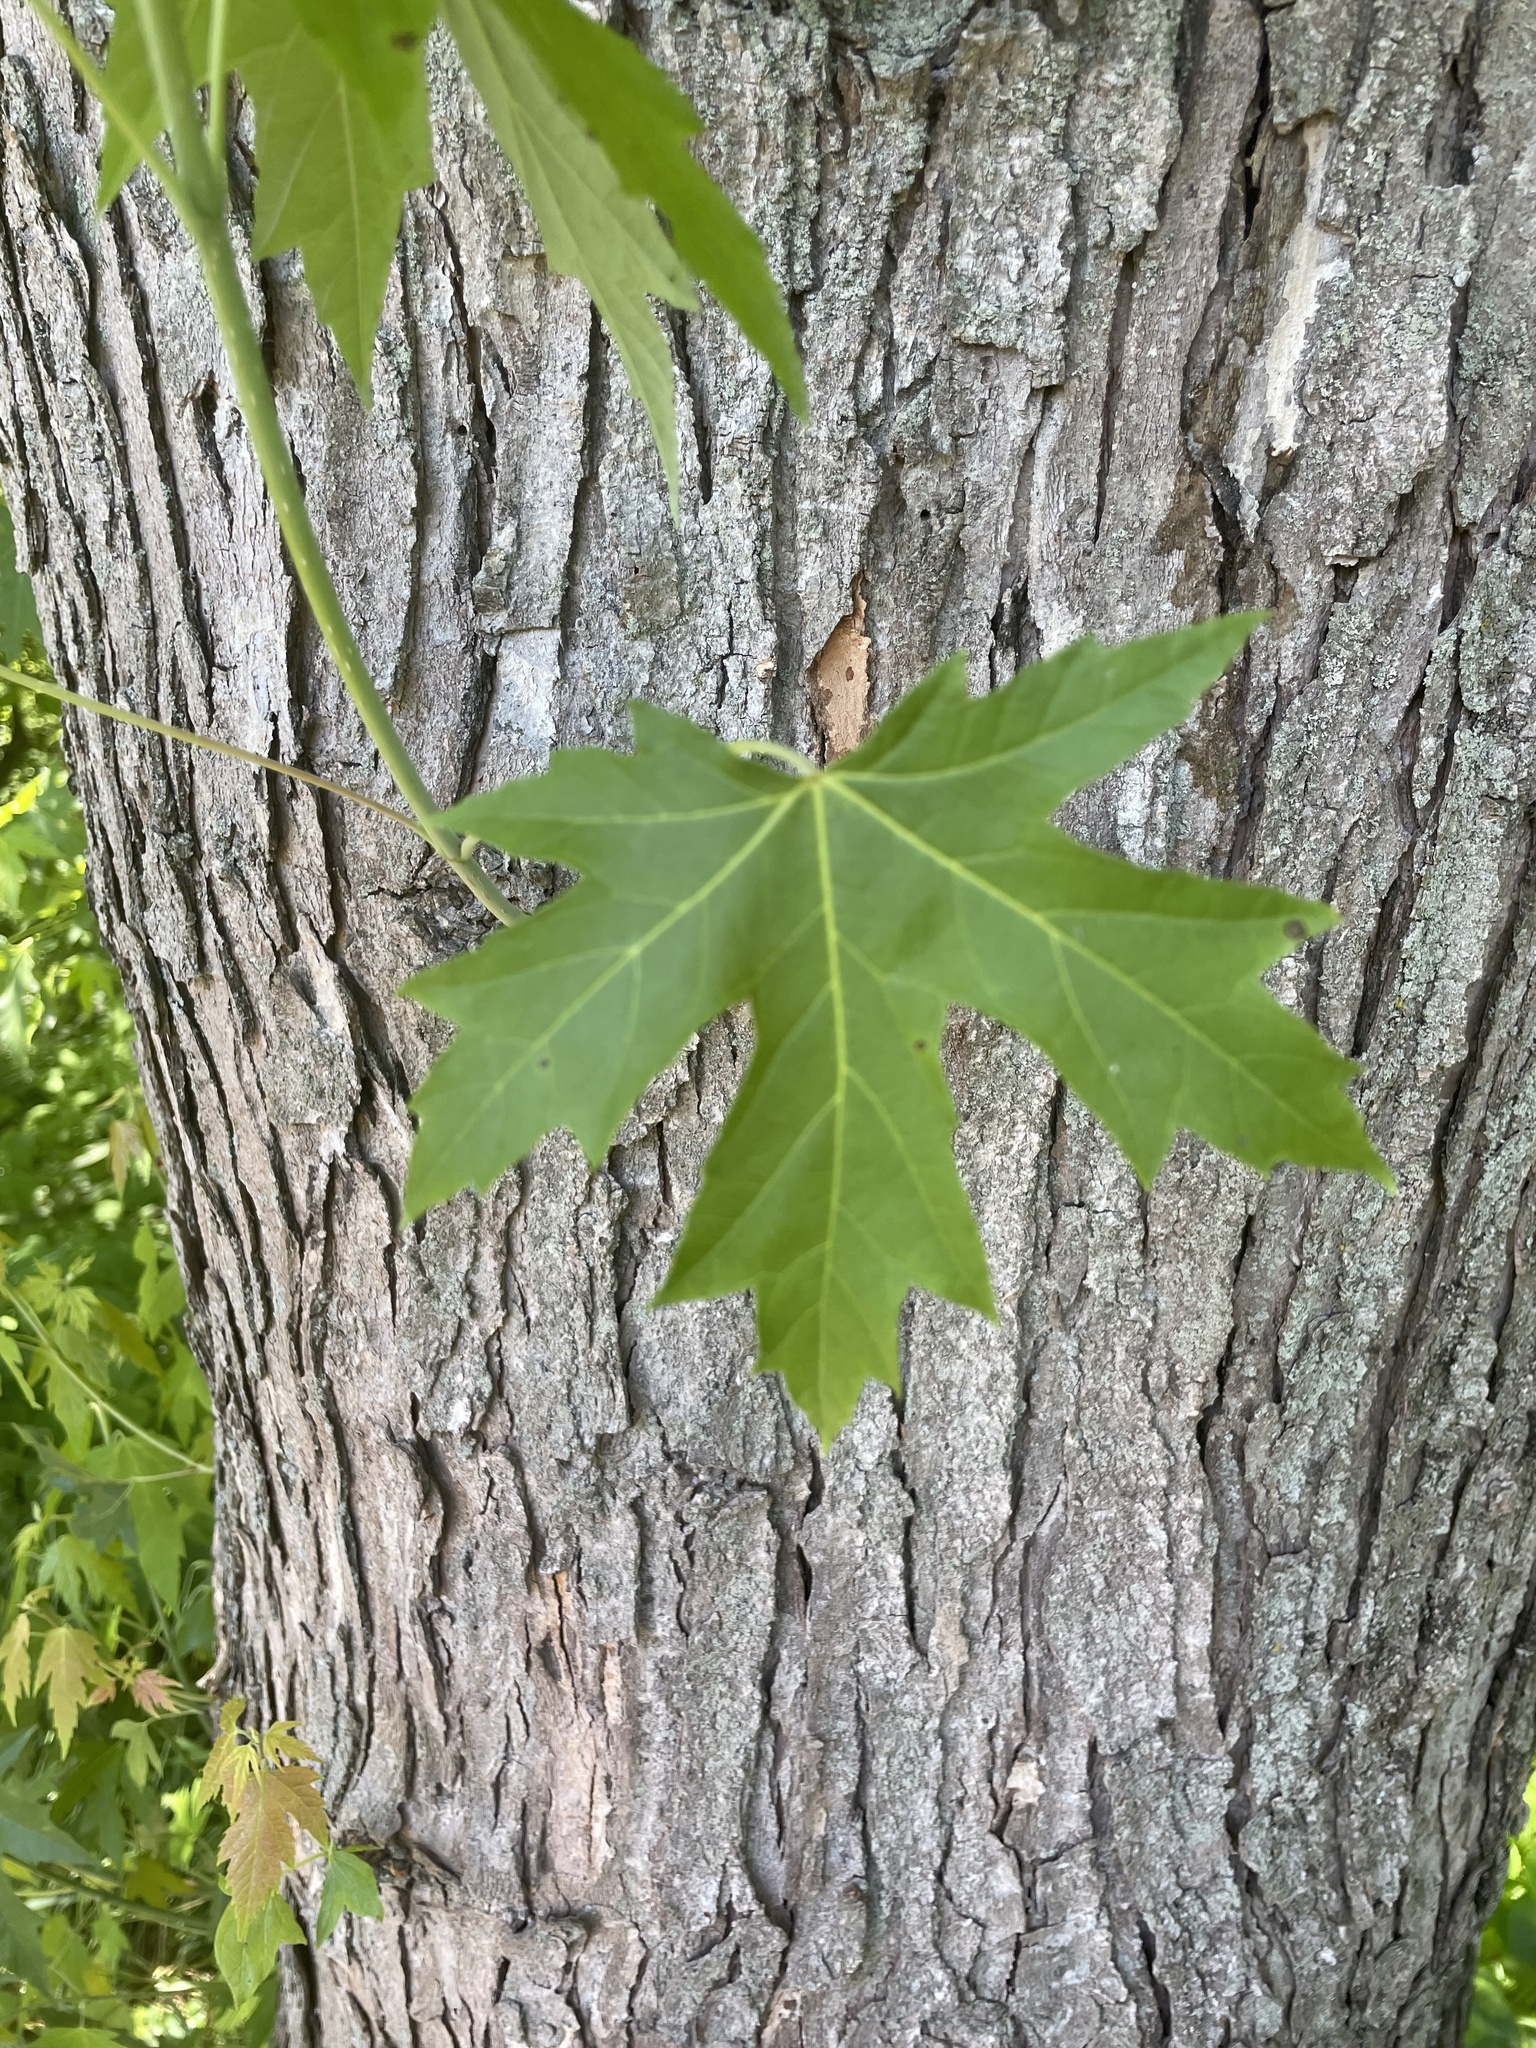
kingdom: Plantae
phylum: Tracheophyta
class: Magnoliopsida
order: Sapindales
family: Sapindaceae
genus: Acer
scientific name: Acer saccharinum
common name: Silver maple
